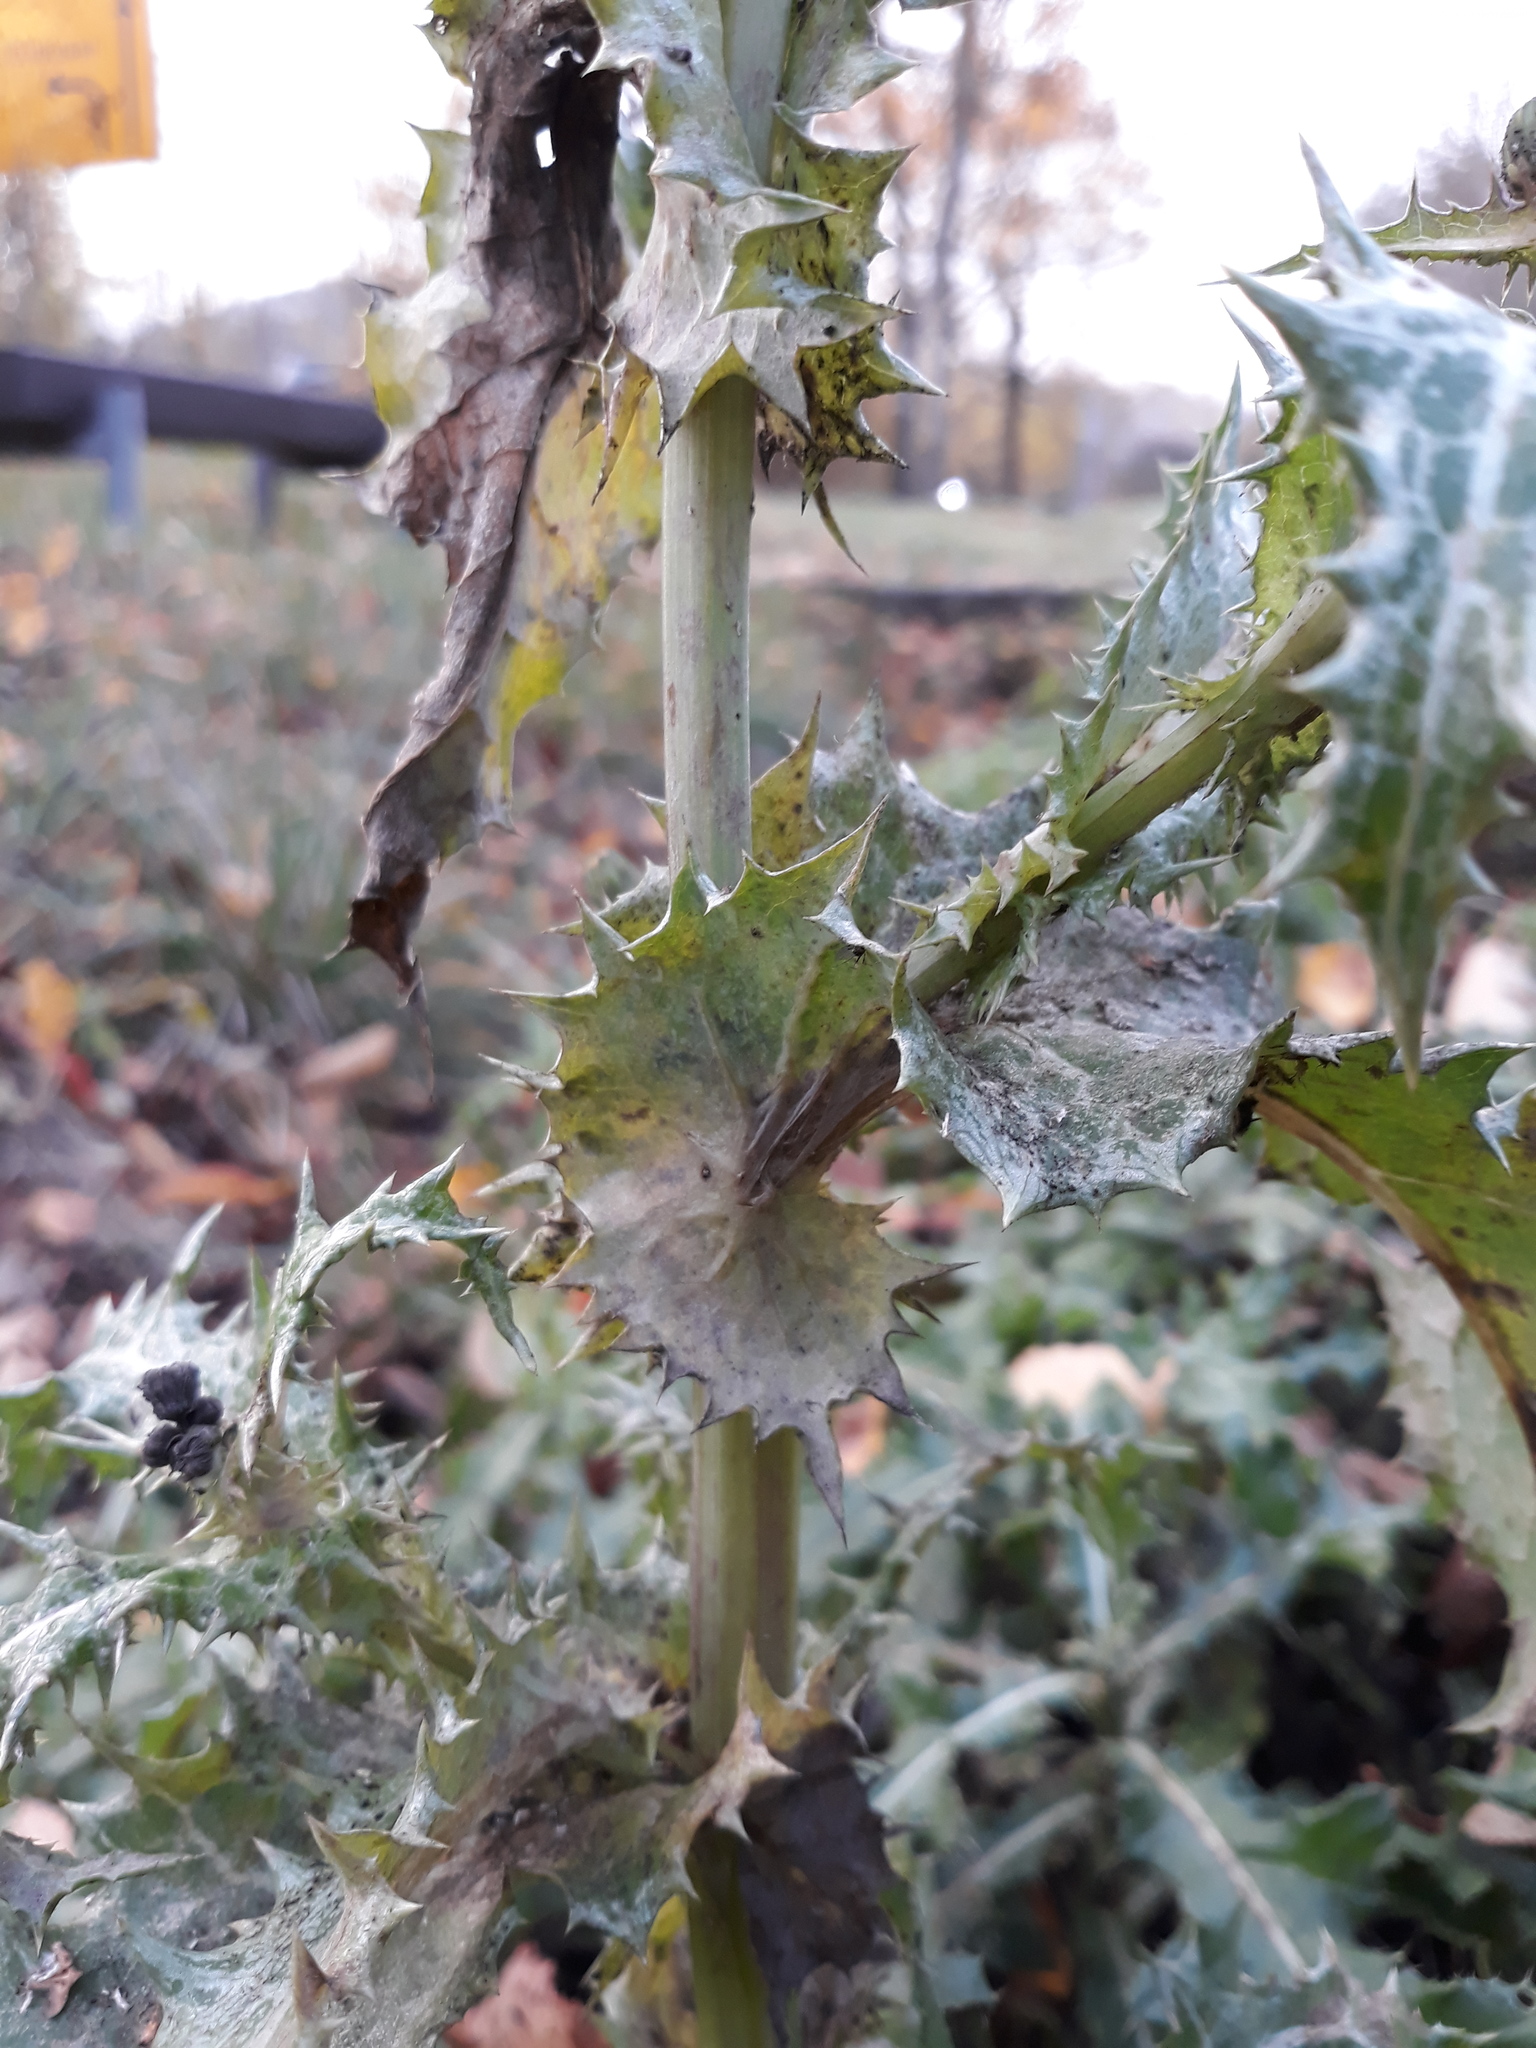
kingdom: Plantae
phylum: Tracheophyta
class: Magnoliopsida
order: Asterales
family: Asteraceae
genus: Sonchus
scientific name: Sonchus asper
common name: Prickly sow-thistle
